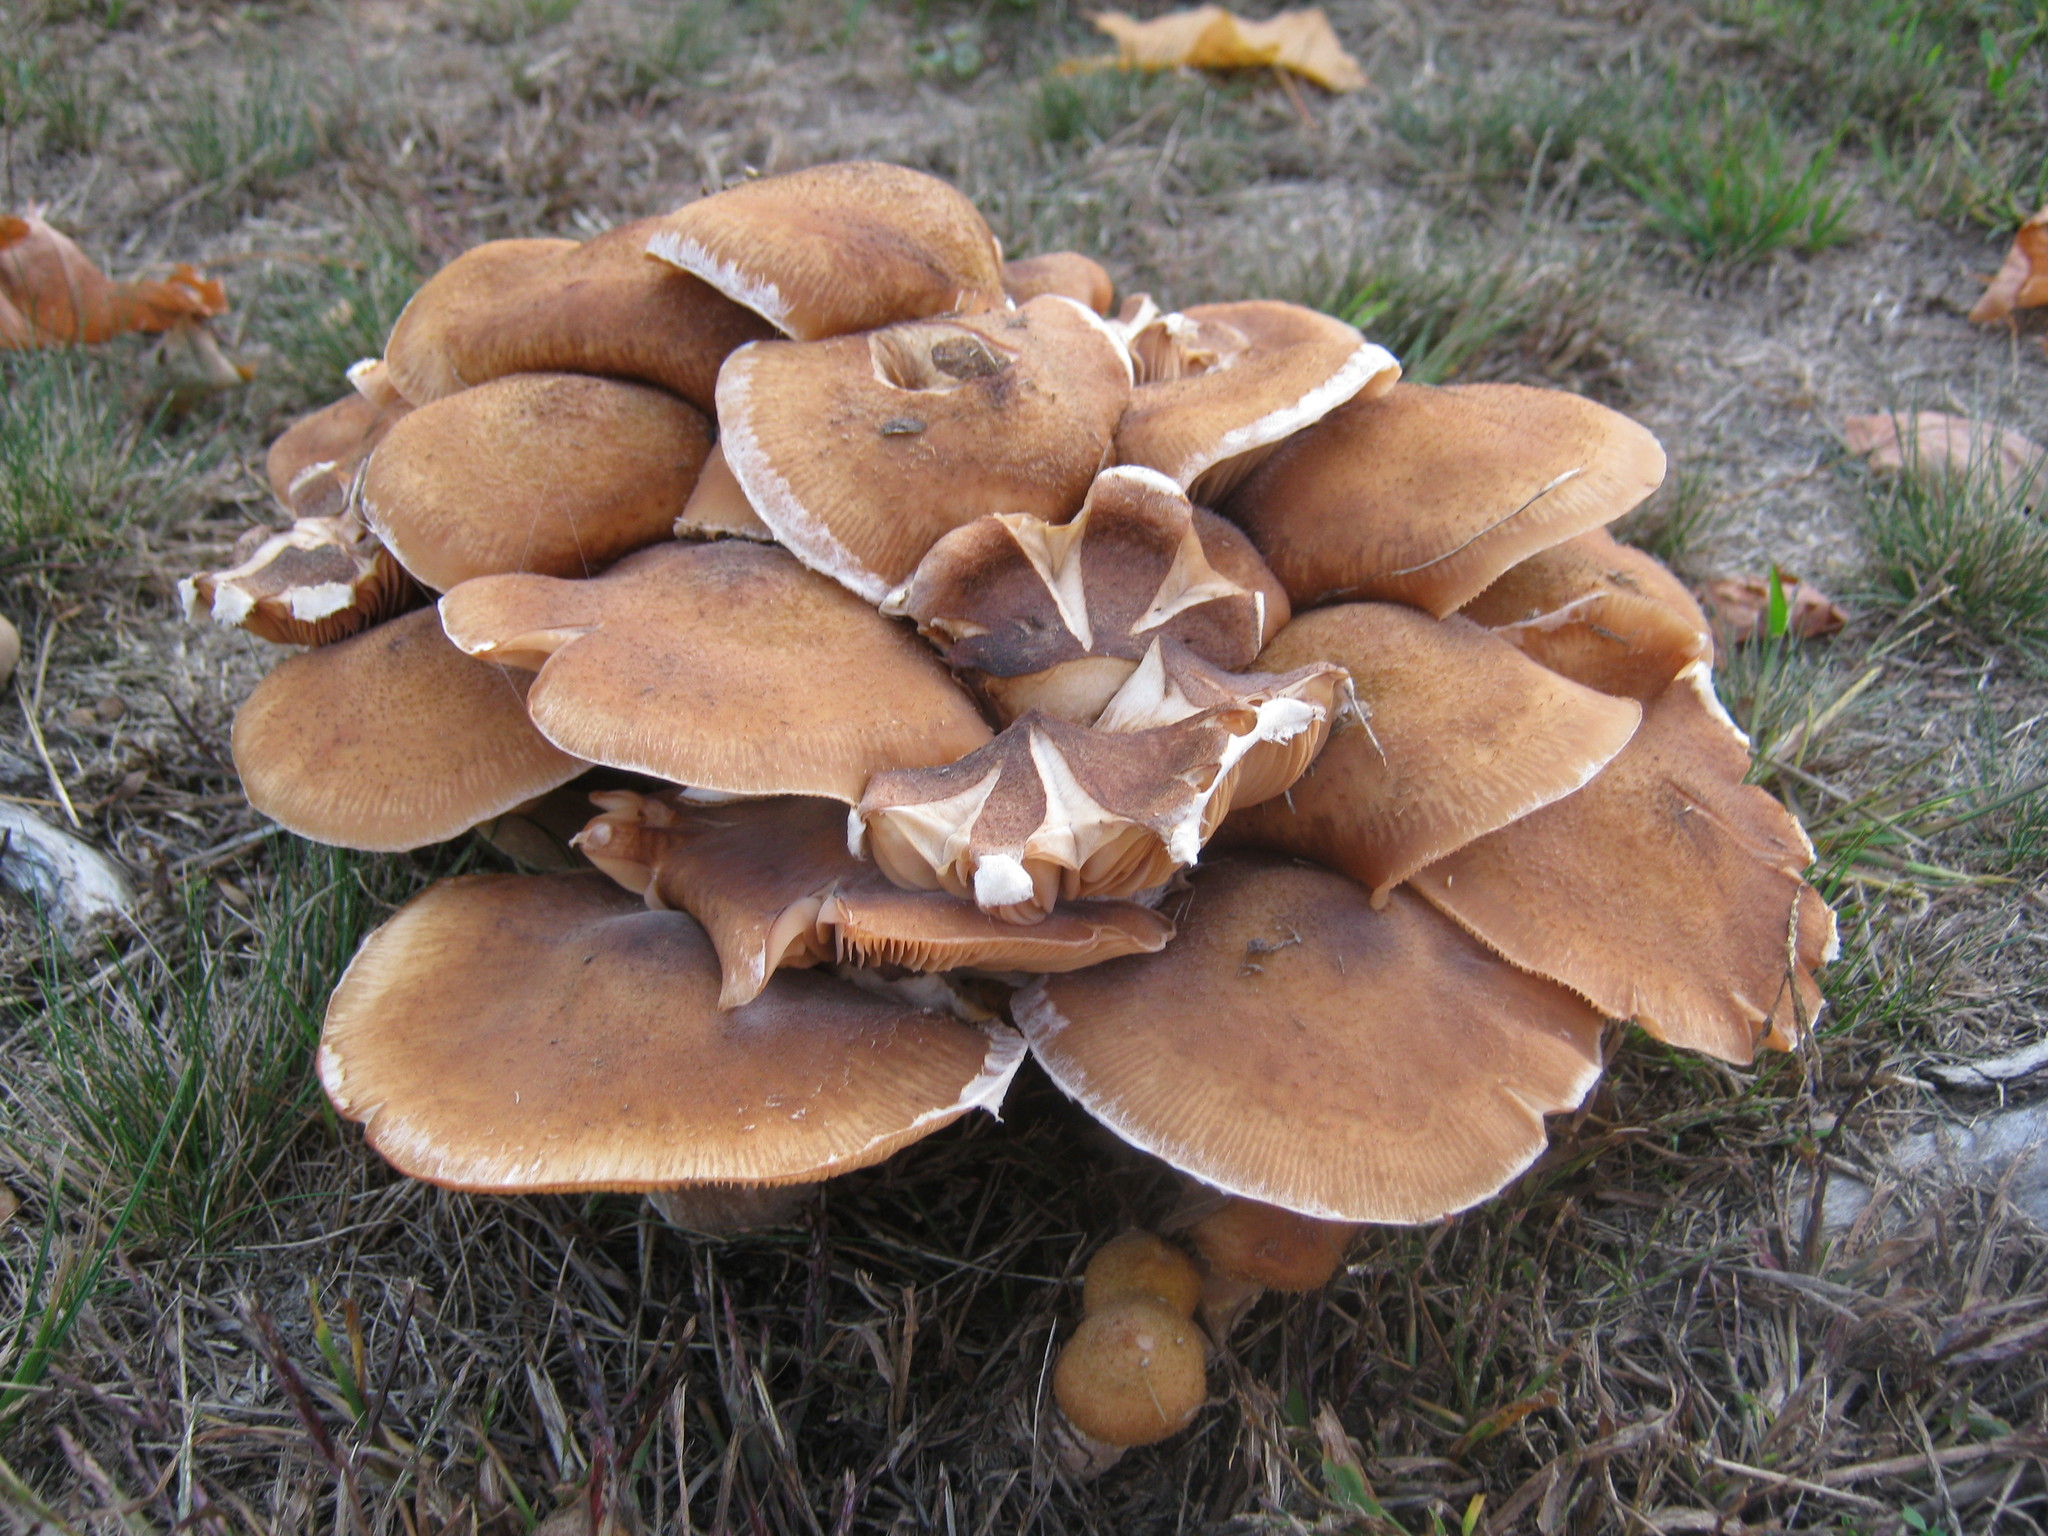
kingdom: Fungi
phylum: Basidiomycota
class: Agaricomycetes
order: Agaricales
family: Physalacriaceae
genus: Armillaria
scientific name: Armillaria mellea
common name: Honey fungus
